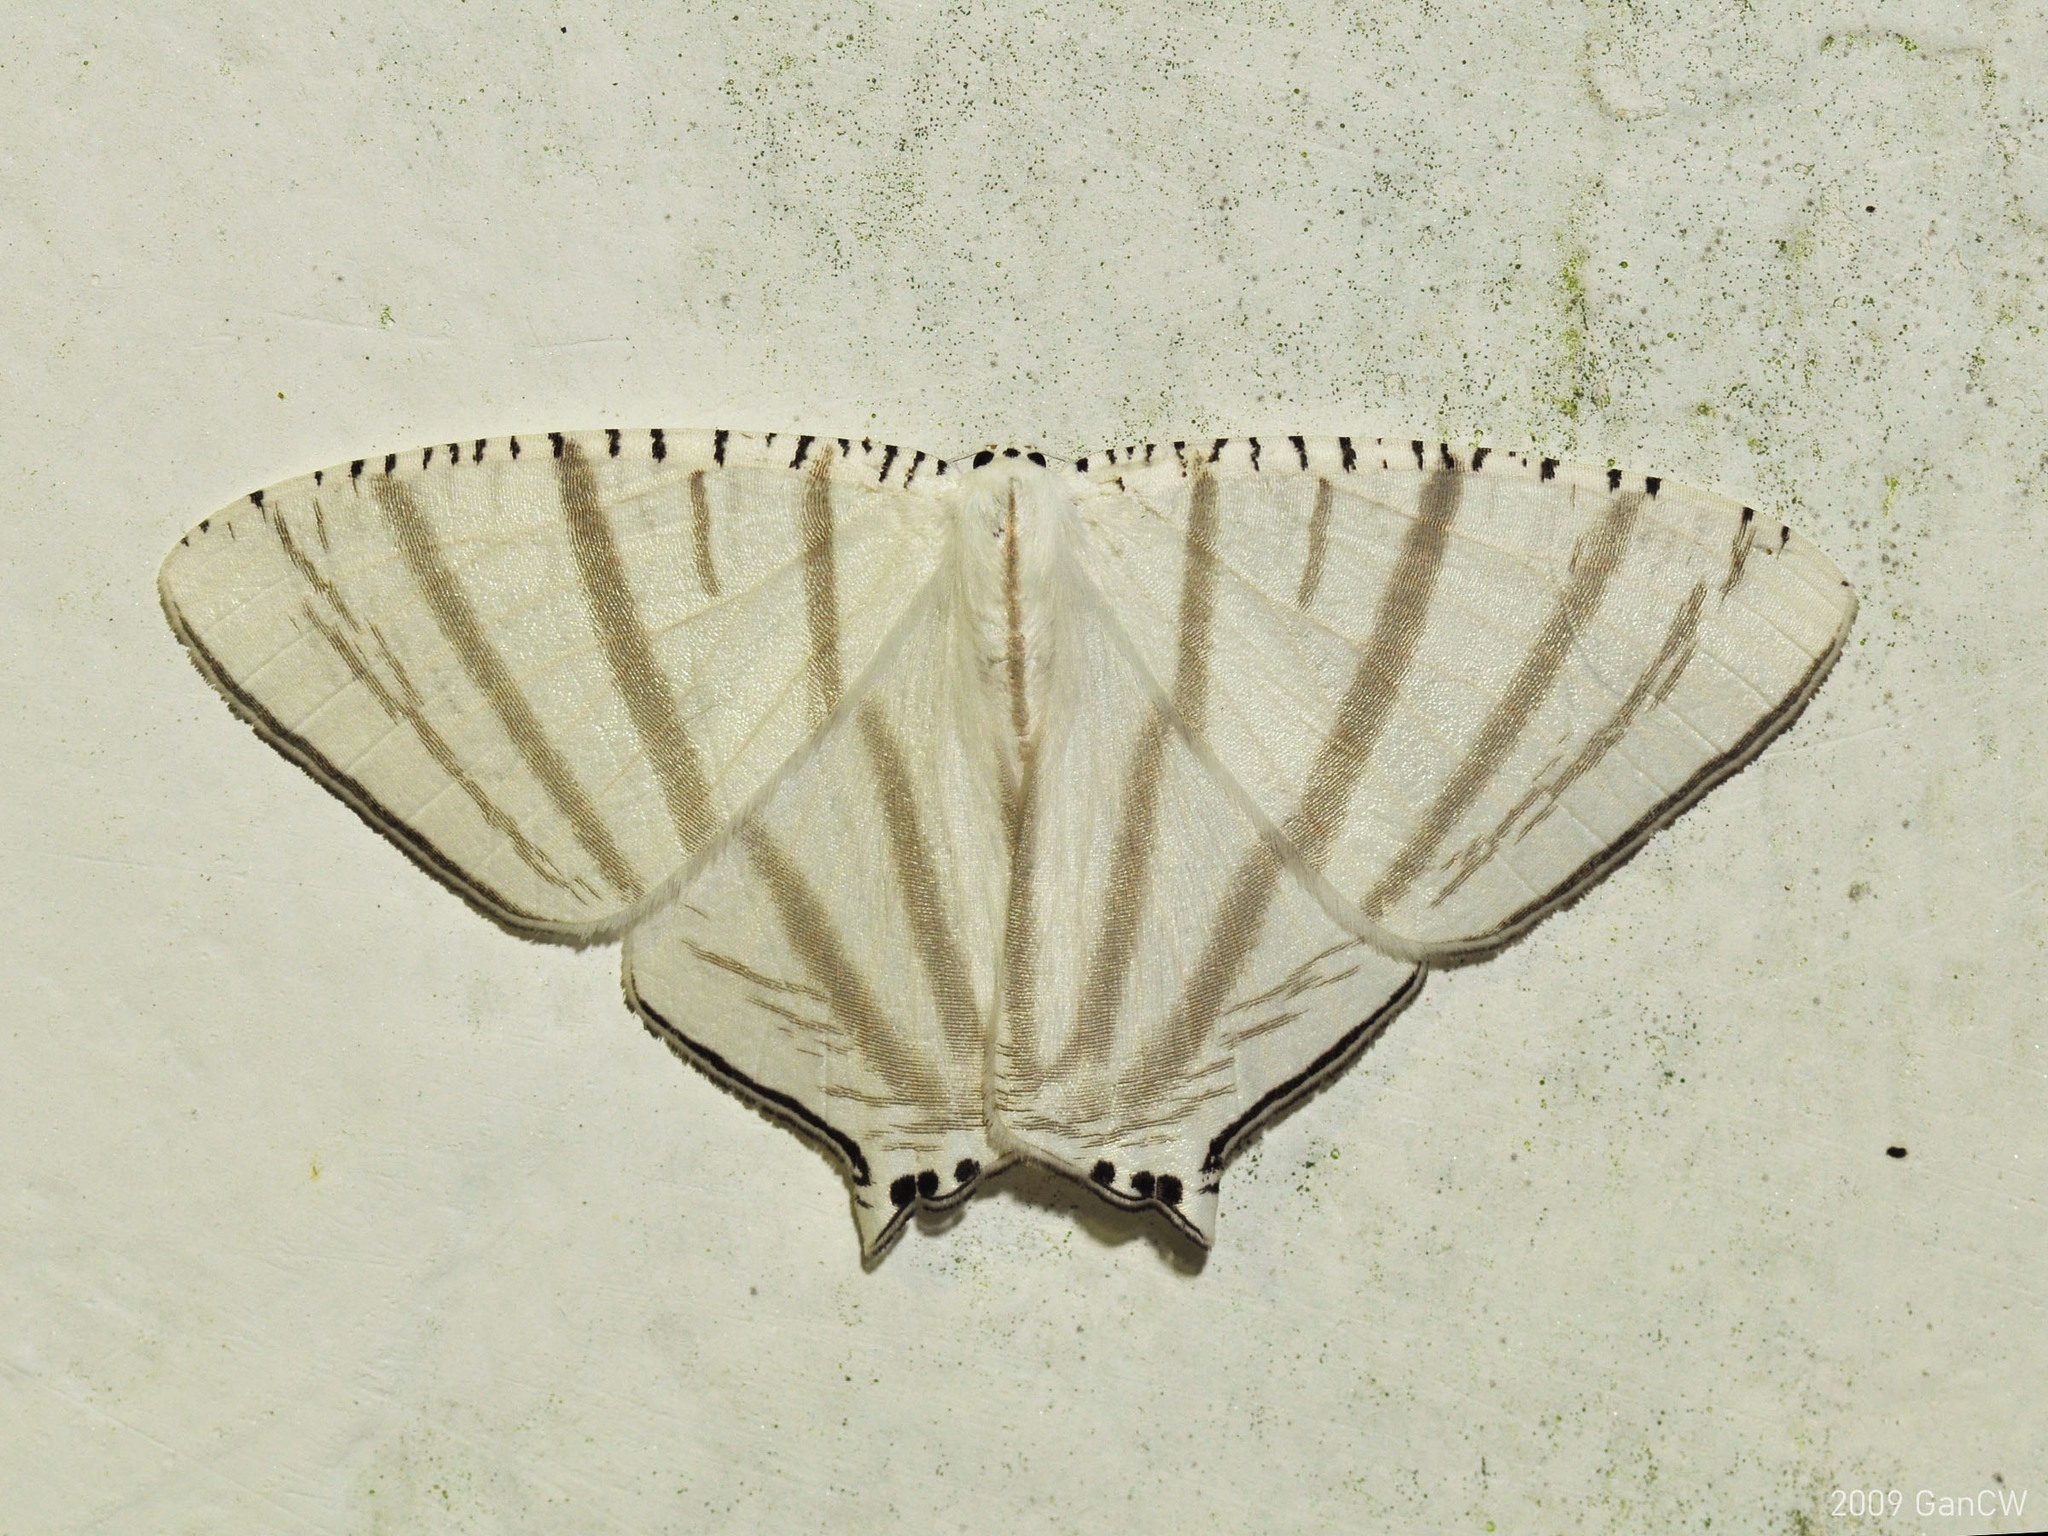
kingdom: Animalia
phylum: Arthropoda
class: Insecta
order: Lepidoptera
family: Uraniidae
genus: Urapteroides
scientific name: Urapteroides astheniata
